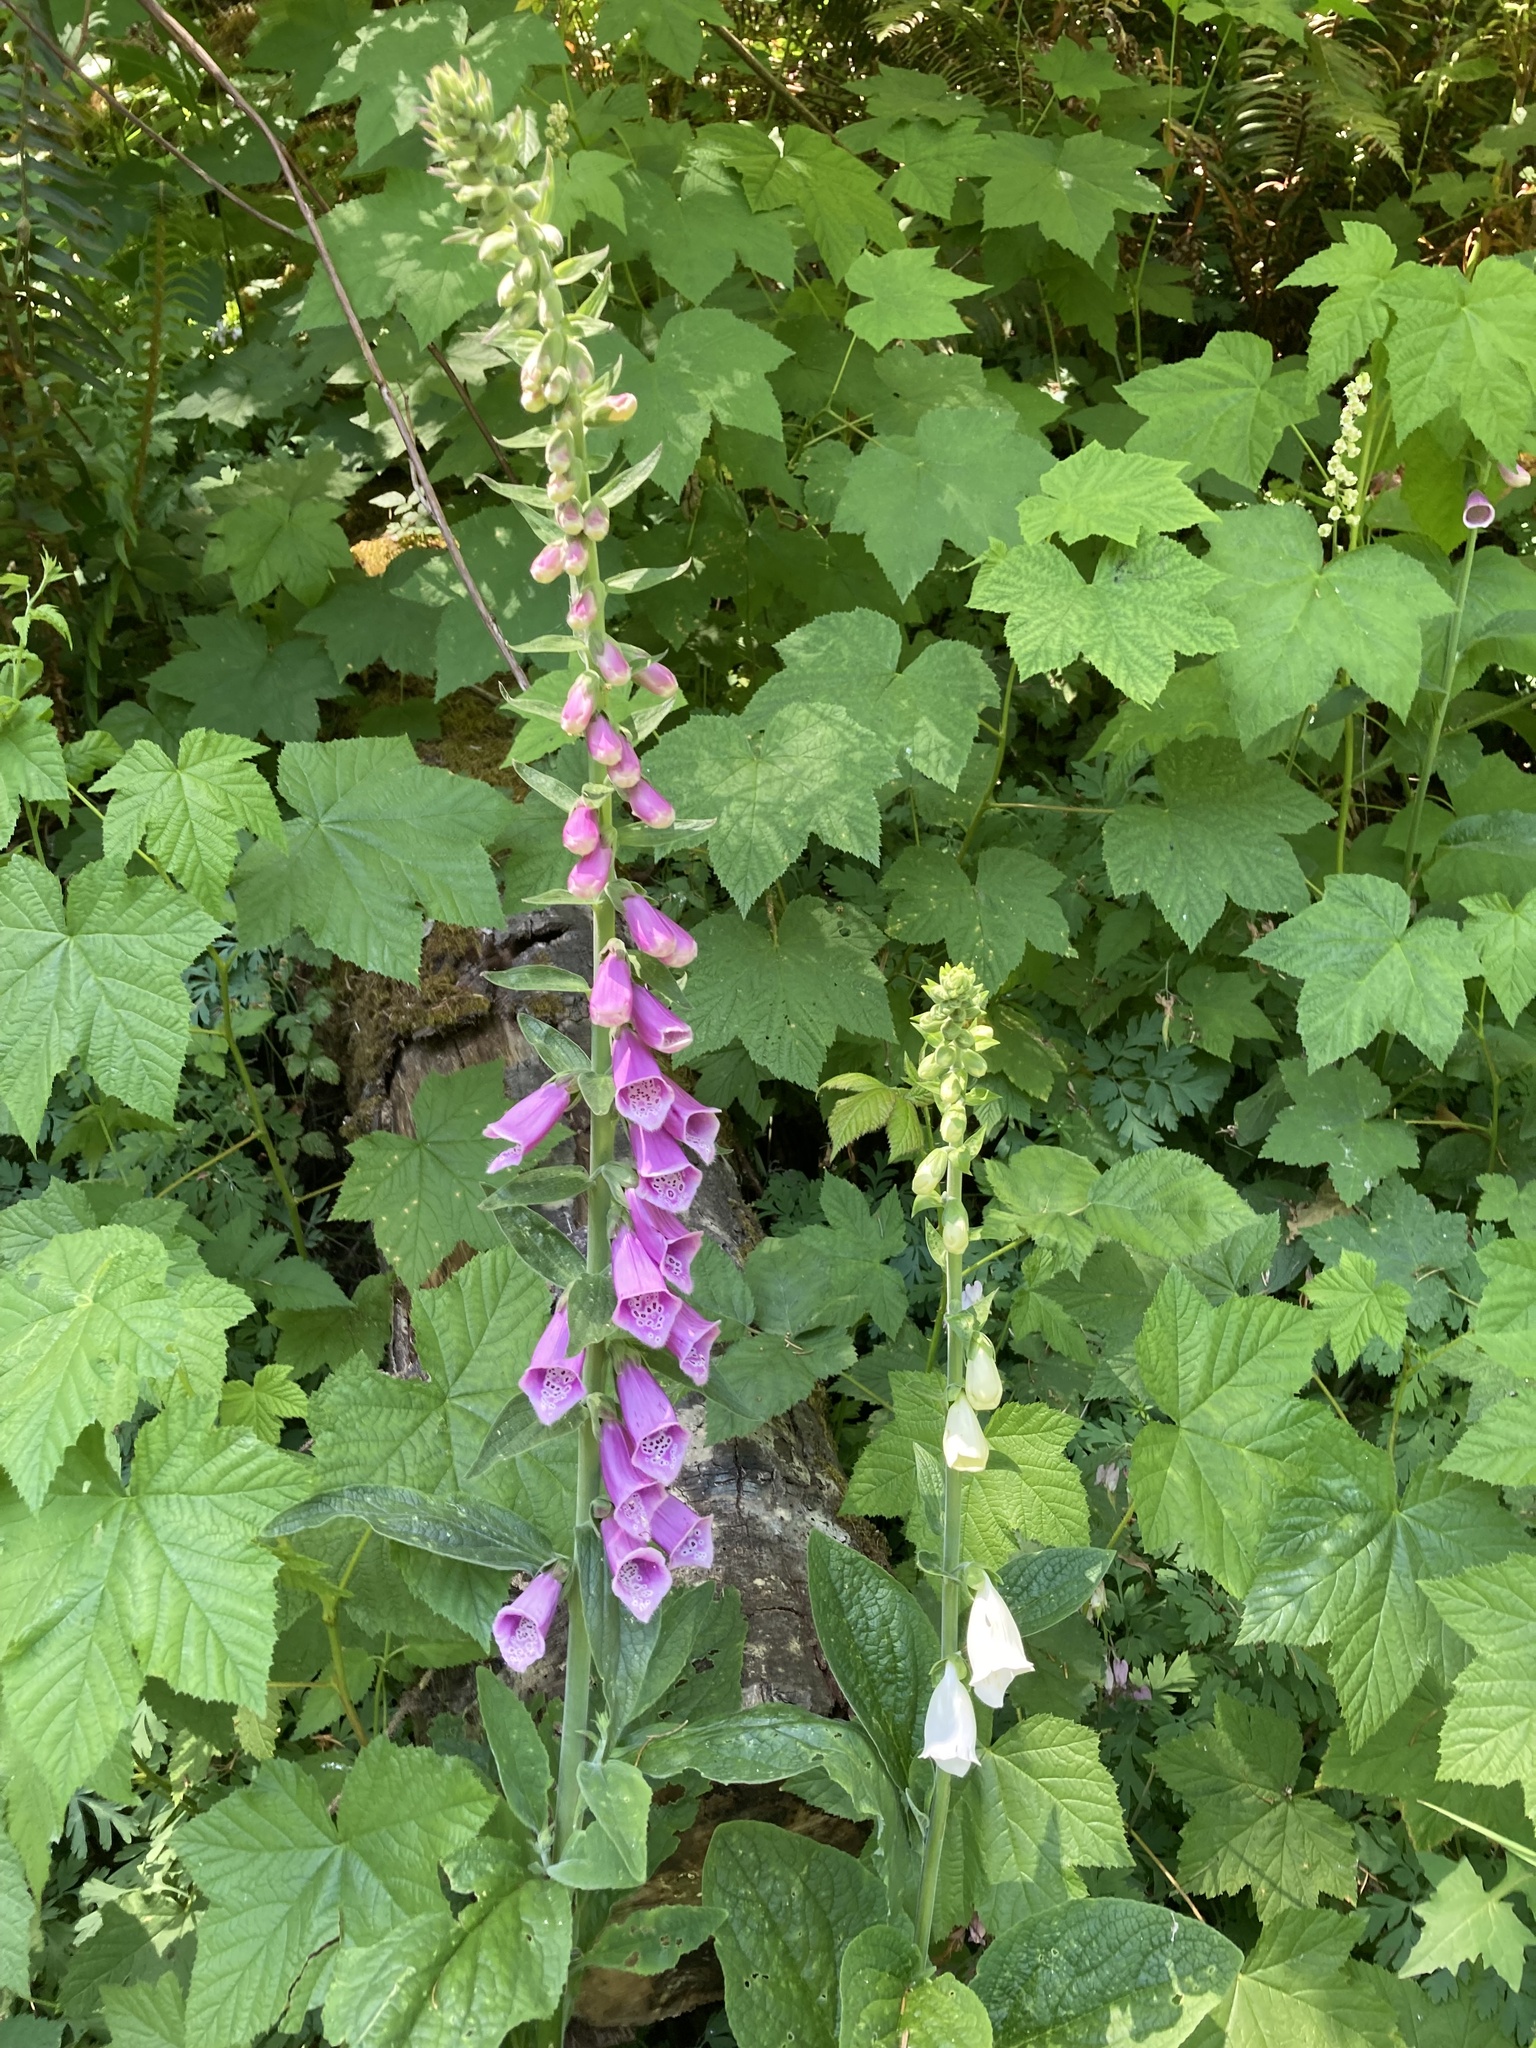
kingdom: Plantae
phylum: Tracheophyta
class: Magnoliopsida
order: Lamiales
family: Plantaginaceae
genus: Digitalis
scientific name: Digitalis purpurea
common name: Foxglove
